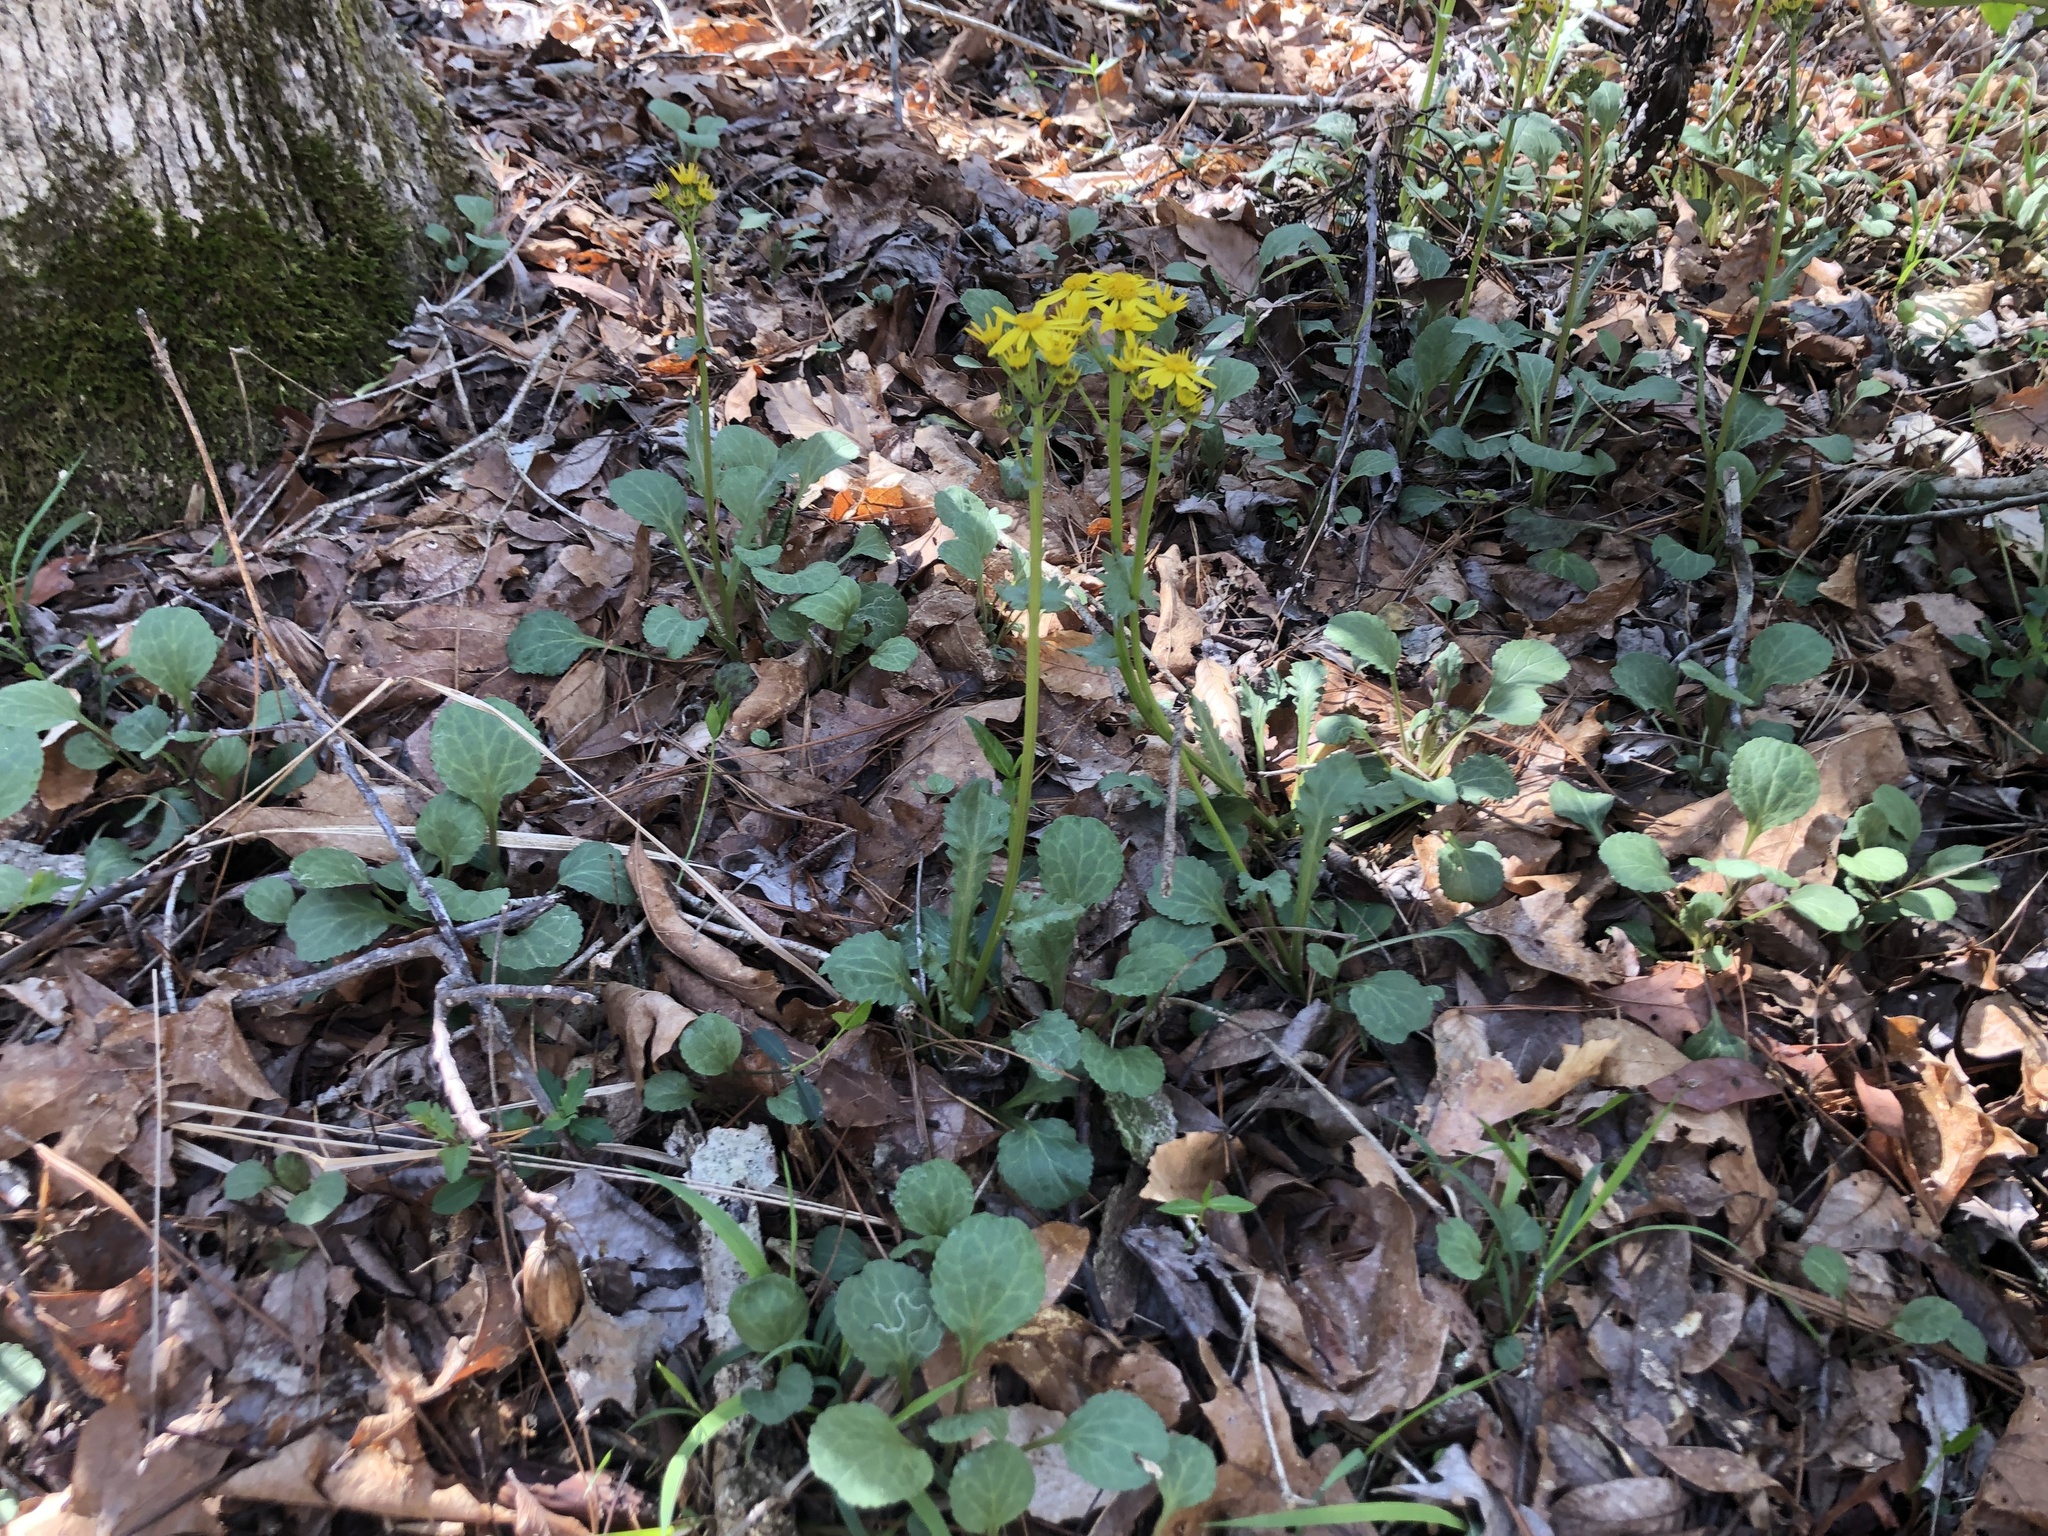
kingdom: Plantae
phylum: Tracheophyta
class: Magnoliopsida
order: Asterales
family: Asteraceae
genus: Packera
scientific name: Packera obovata
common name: Round-leaf ragwort
